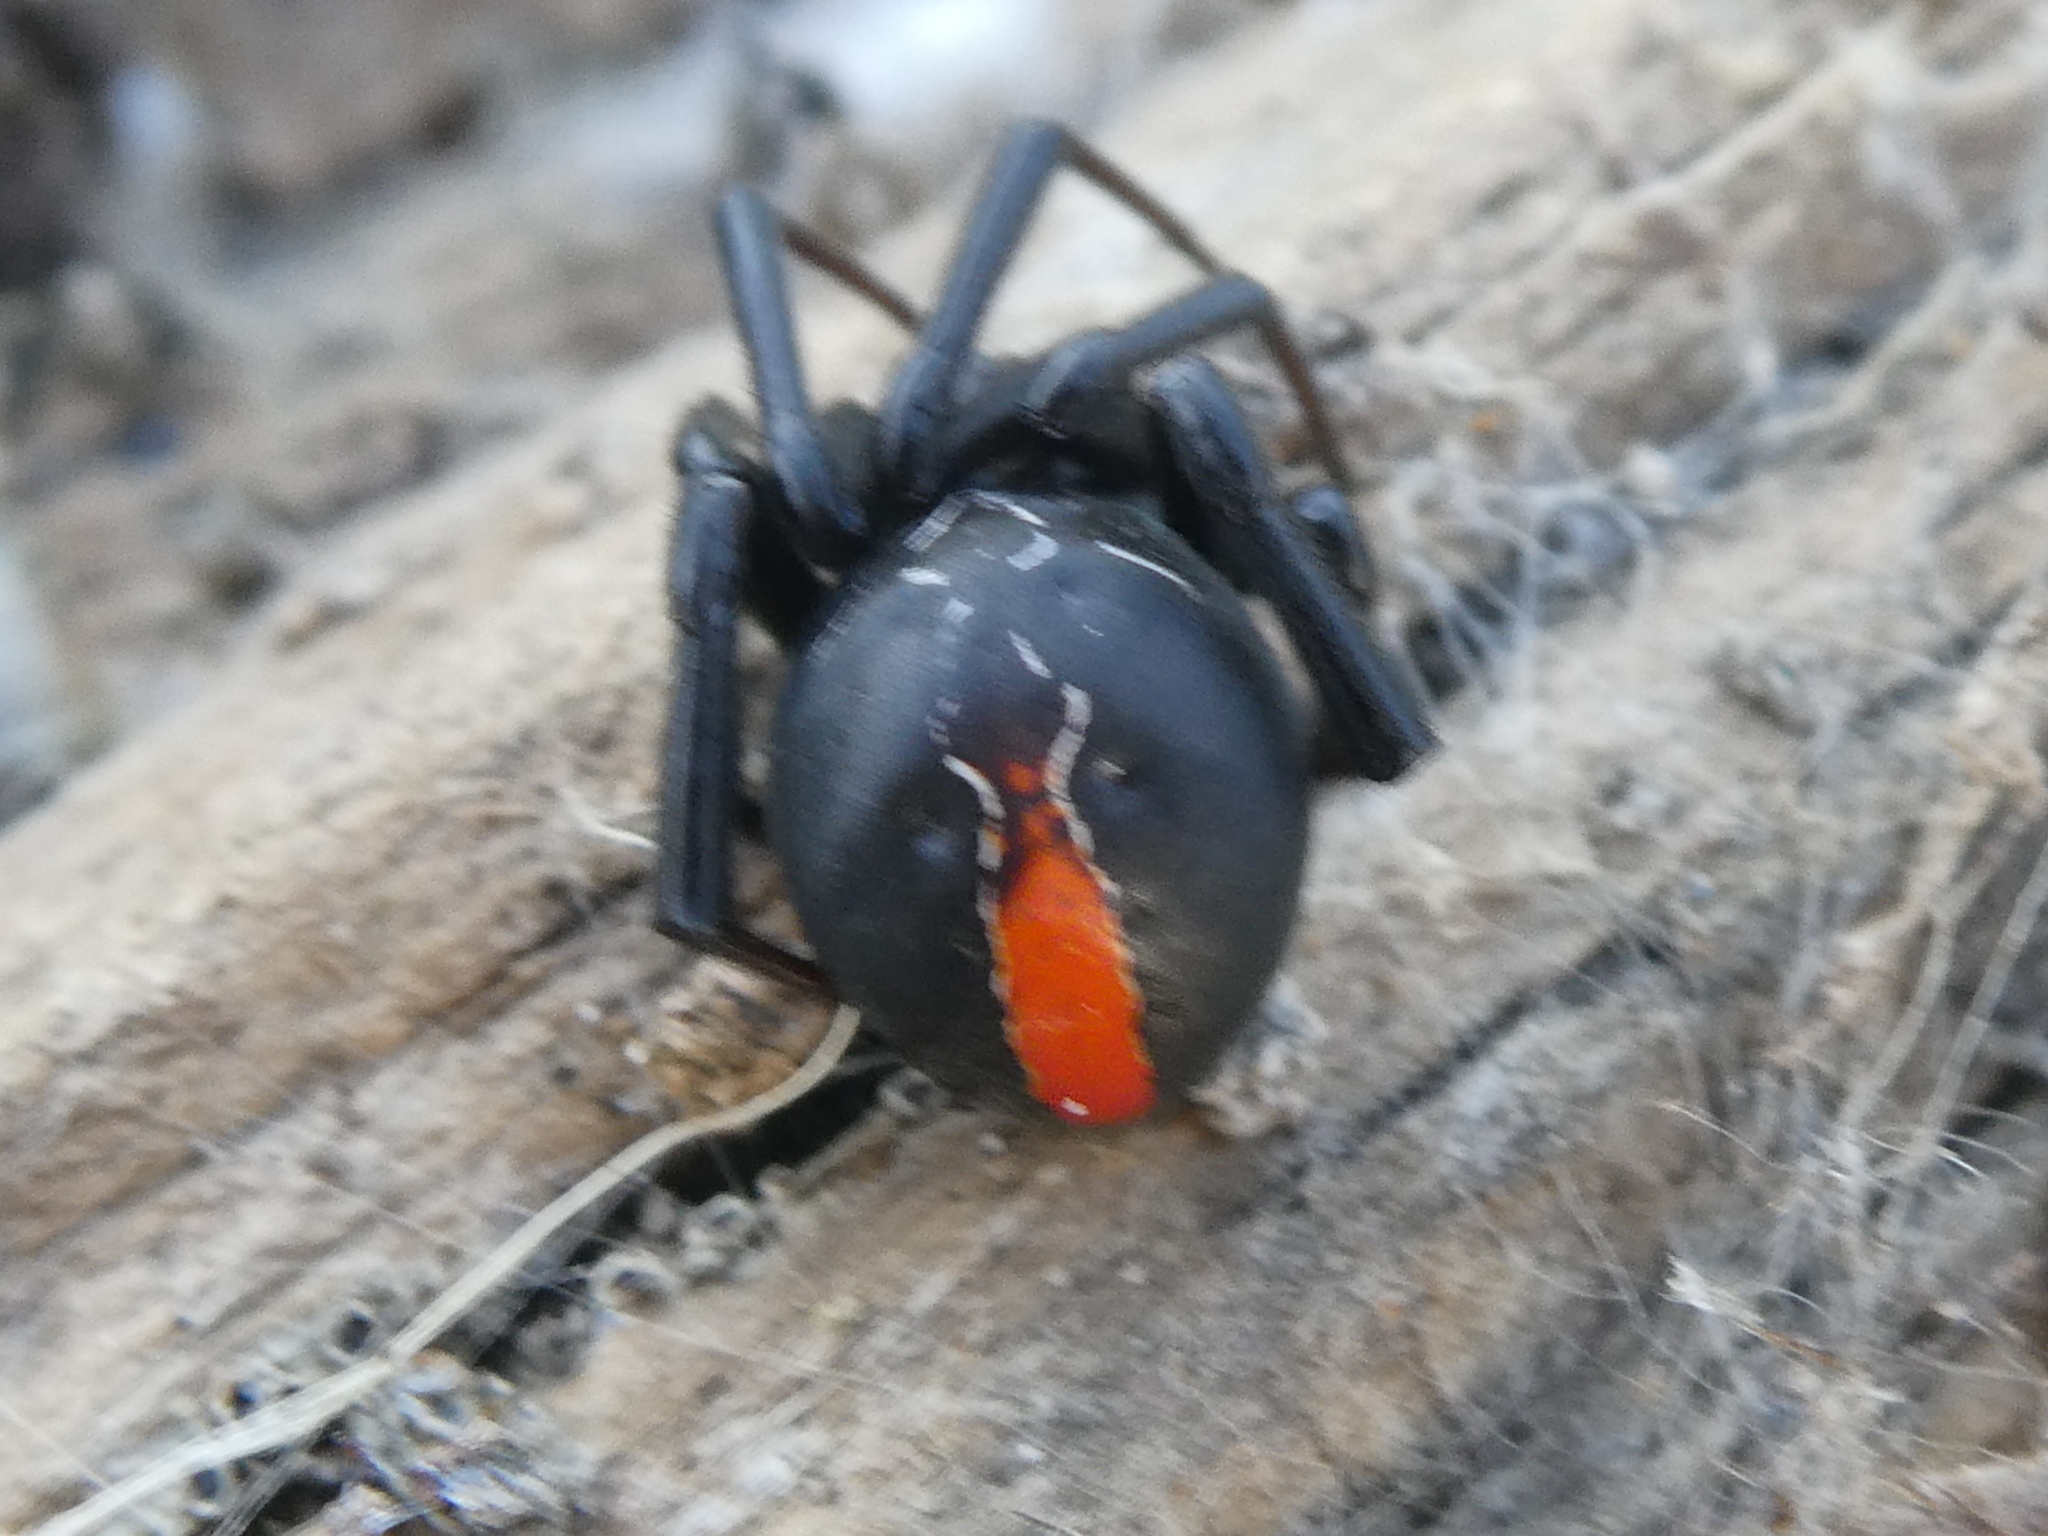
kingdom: Animalia
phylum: Arthropoda
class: Arachnida
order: Araneae
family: Theridiidae
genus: Latrodectus
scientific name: Latrodectus katipo
